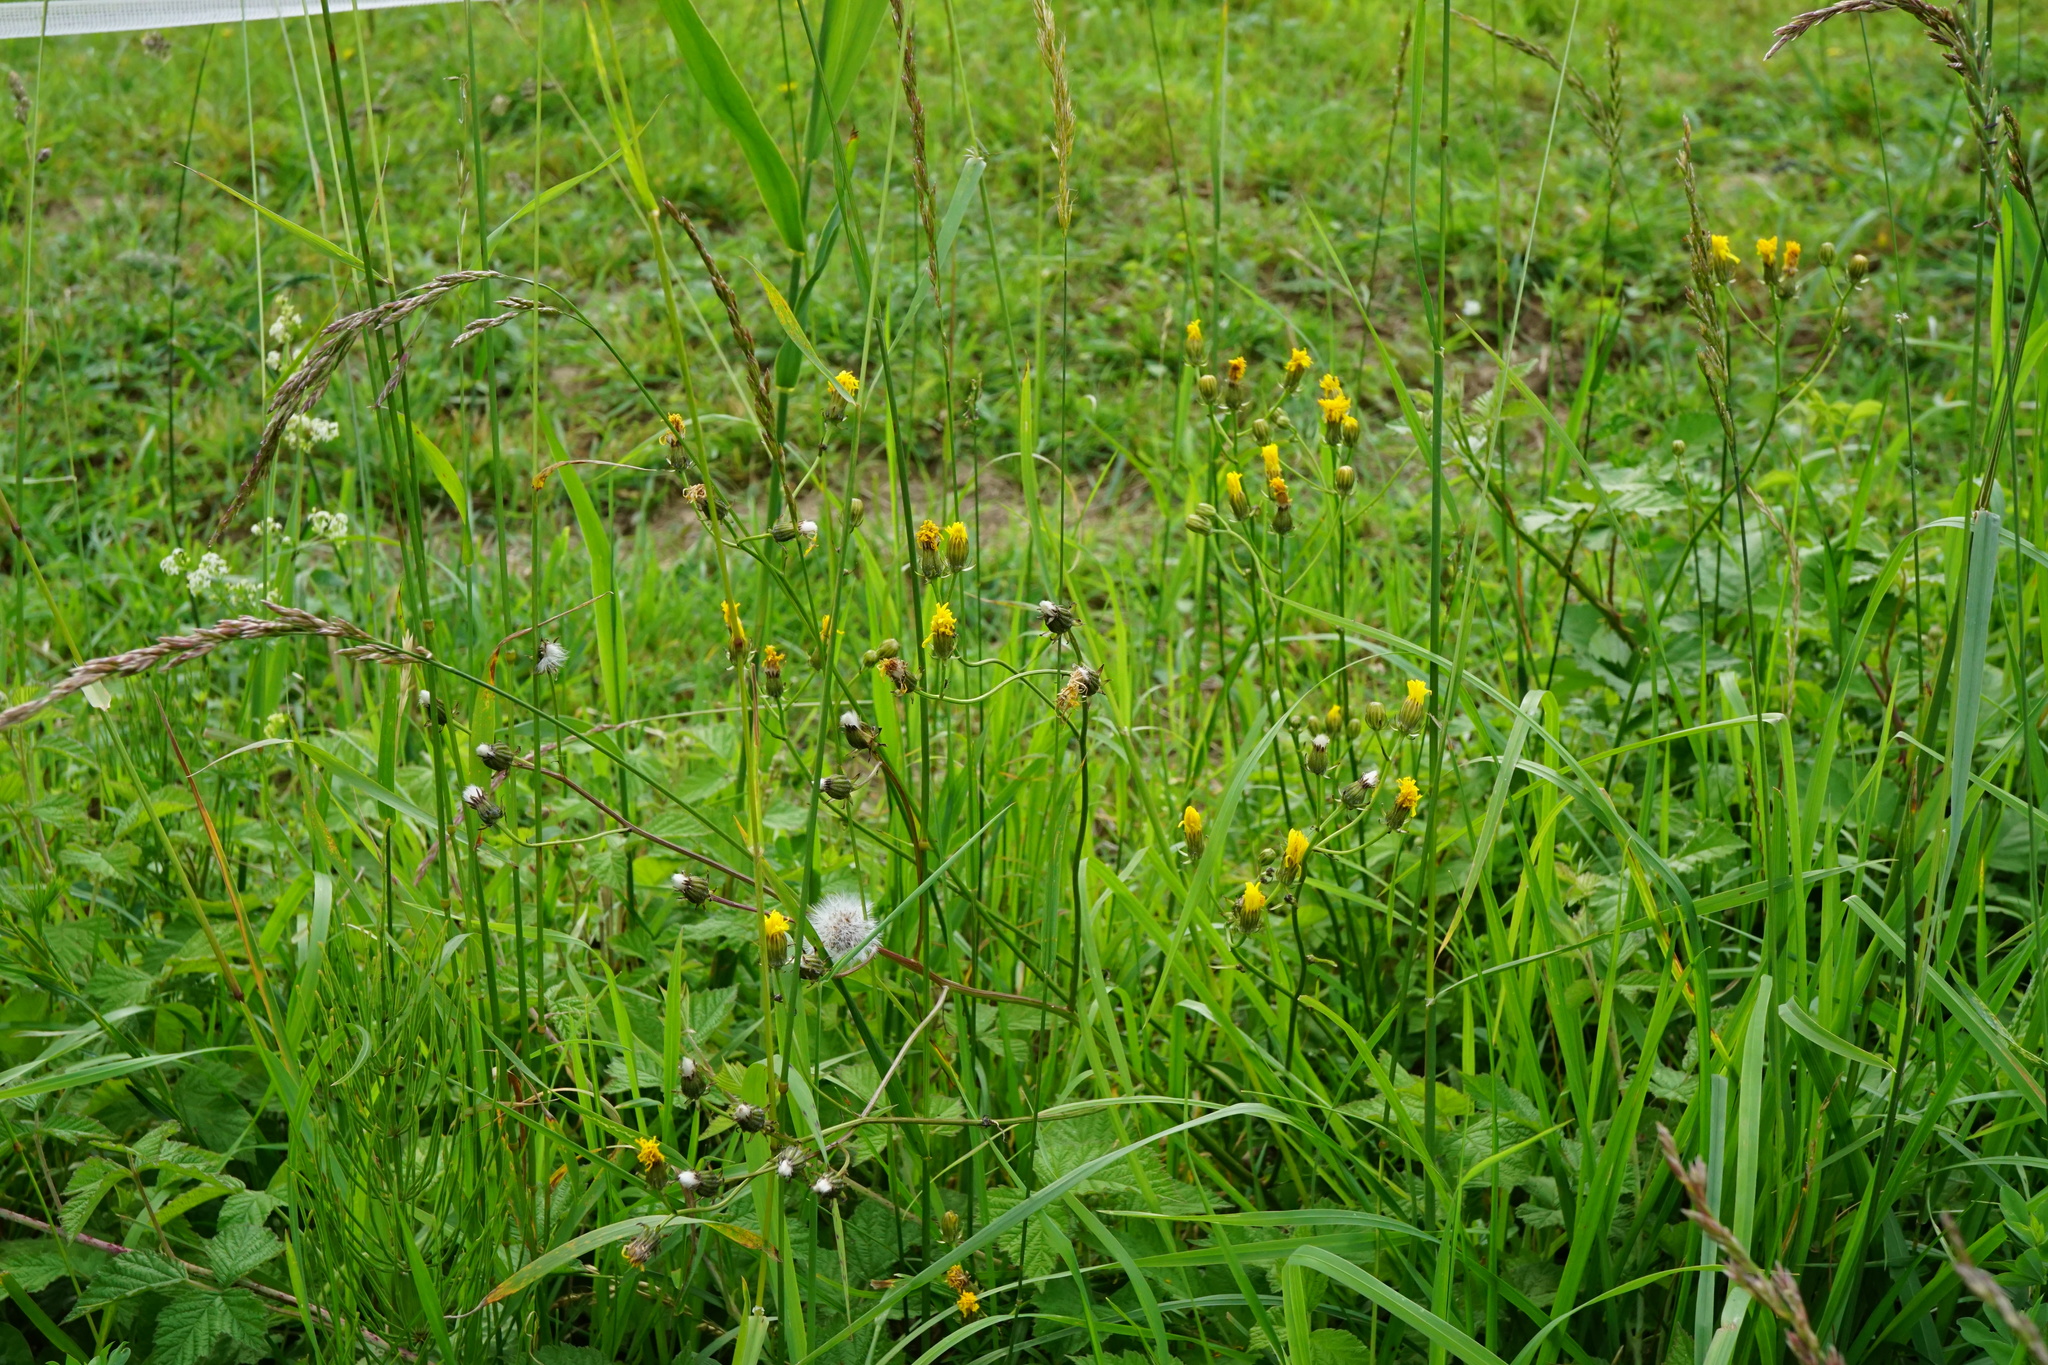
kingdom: Plantae
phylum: Tracheophyta
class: Magnoliopsida
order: Asterales
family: Asteraceae
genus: Crepis
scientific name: Crepis biennis
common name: Rough hawk's-beard
